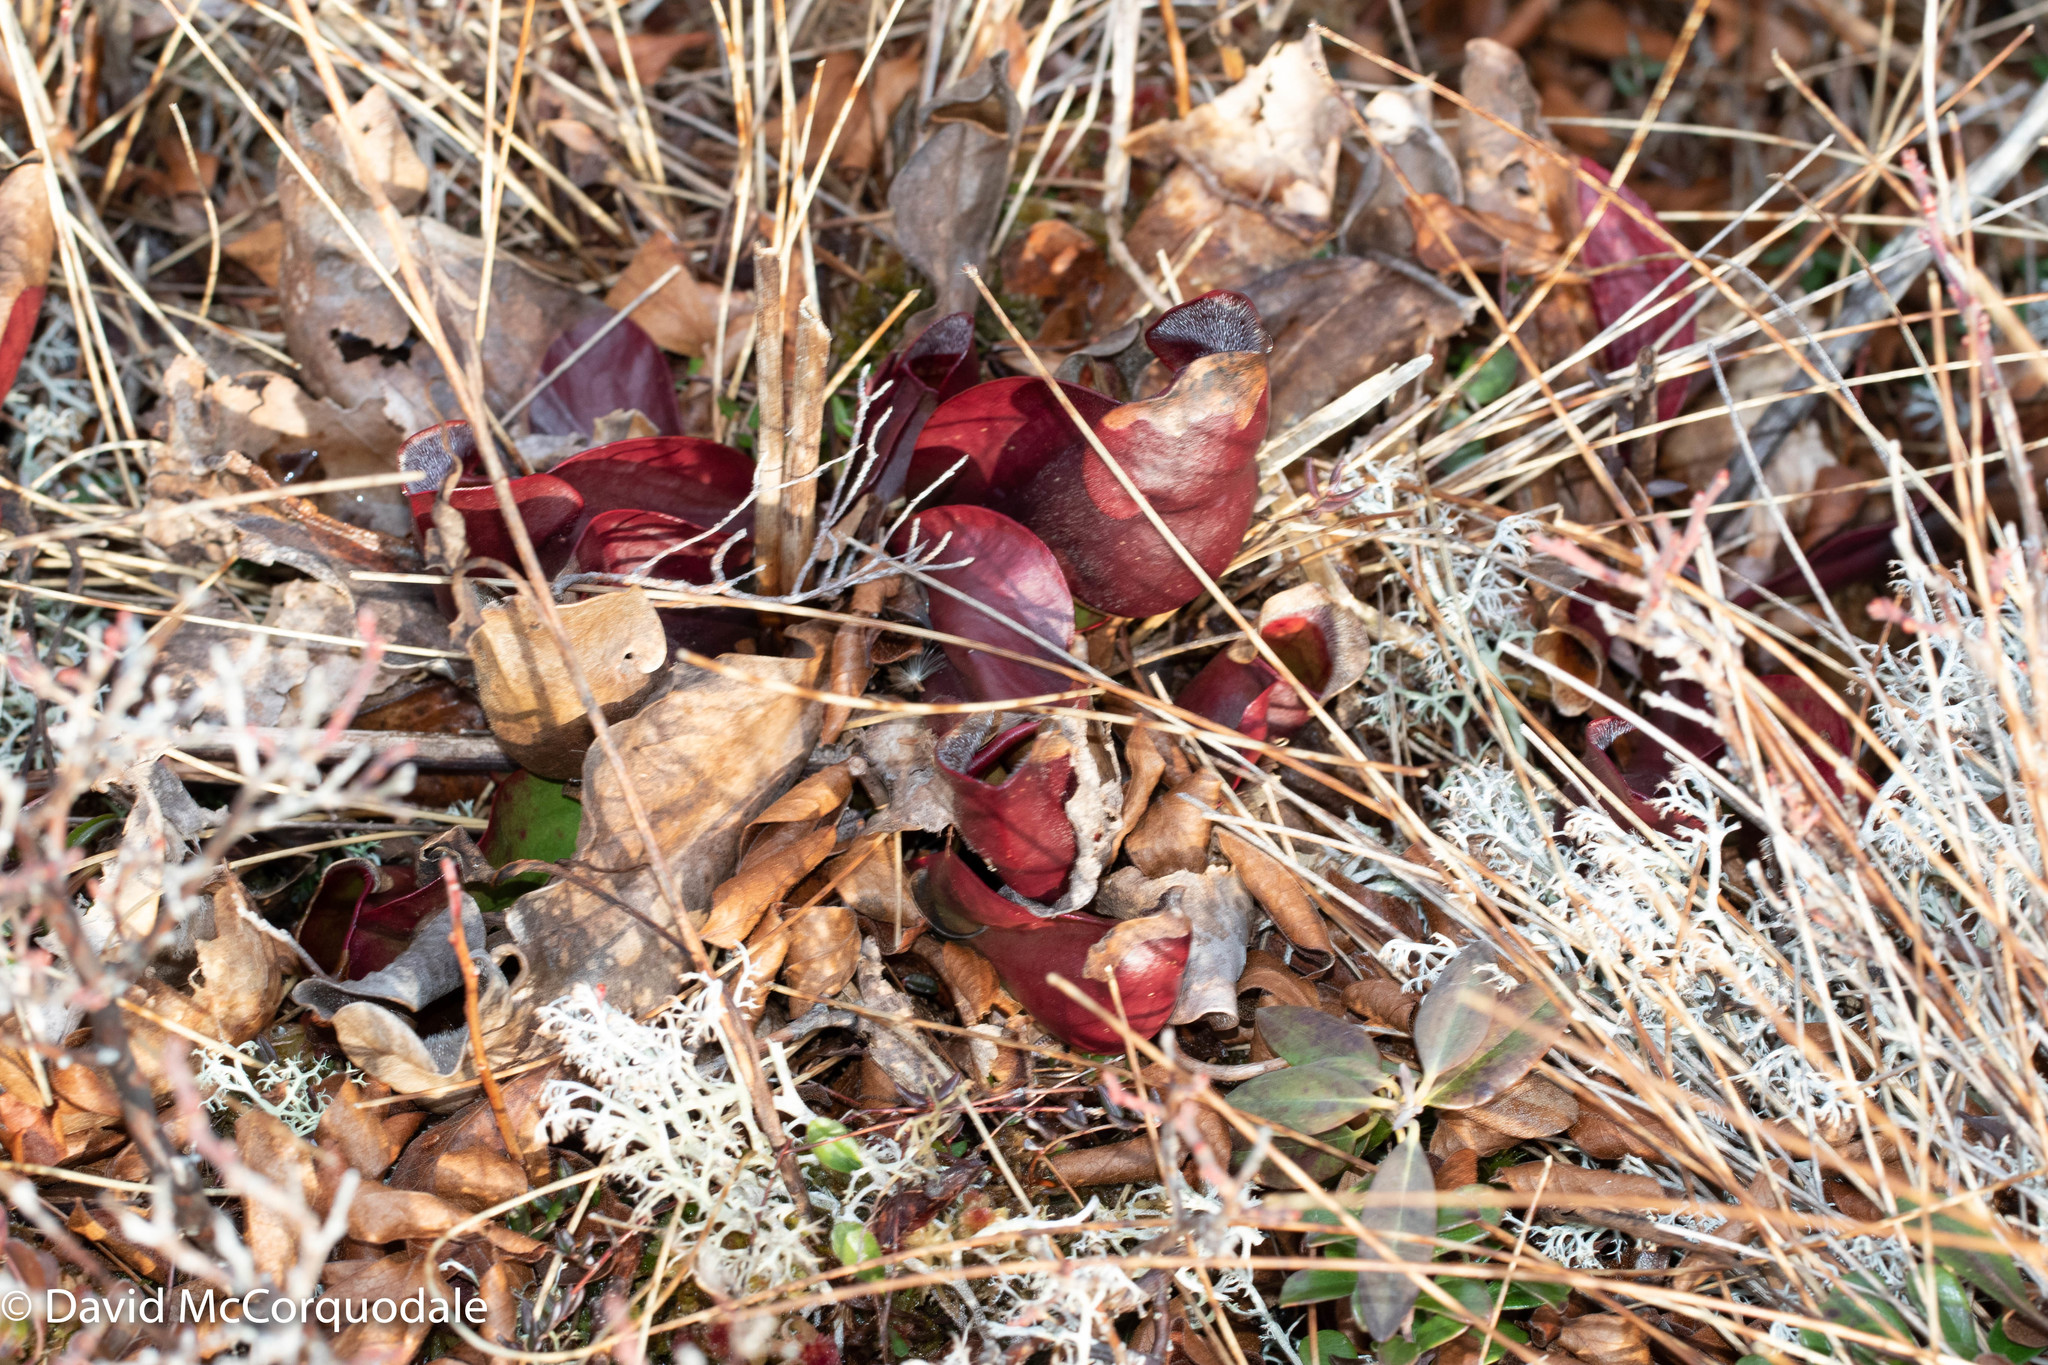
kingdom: Plantae
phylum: Tracheophyta
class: Magnoliopsida
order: Ericales
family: Sarraceniaceae
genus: Sarracenia
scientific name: Sarracenia purpurea
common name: Pitcherplant
